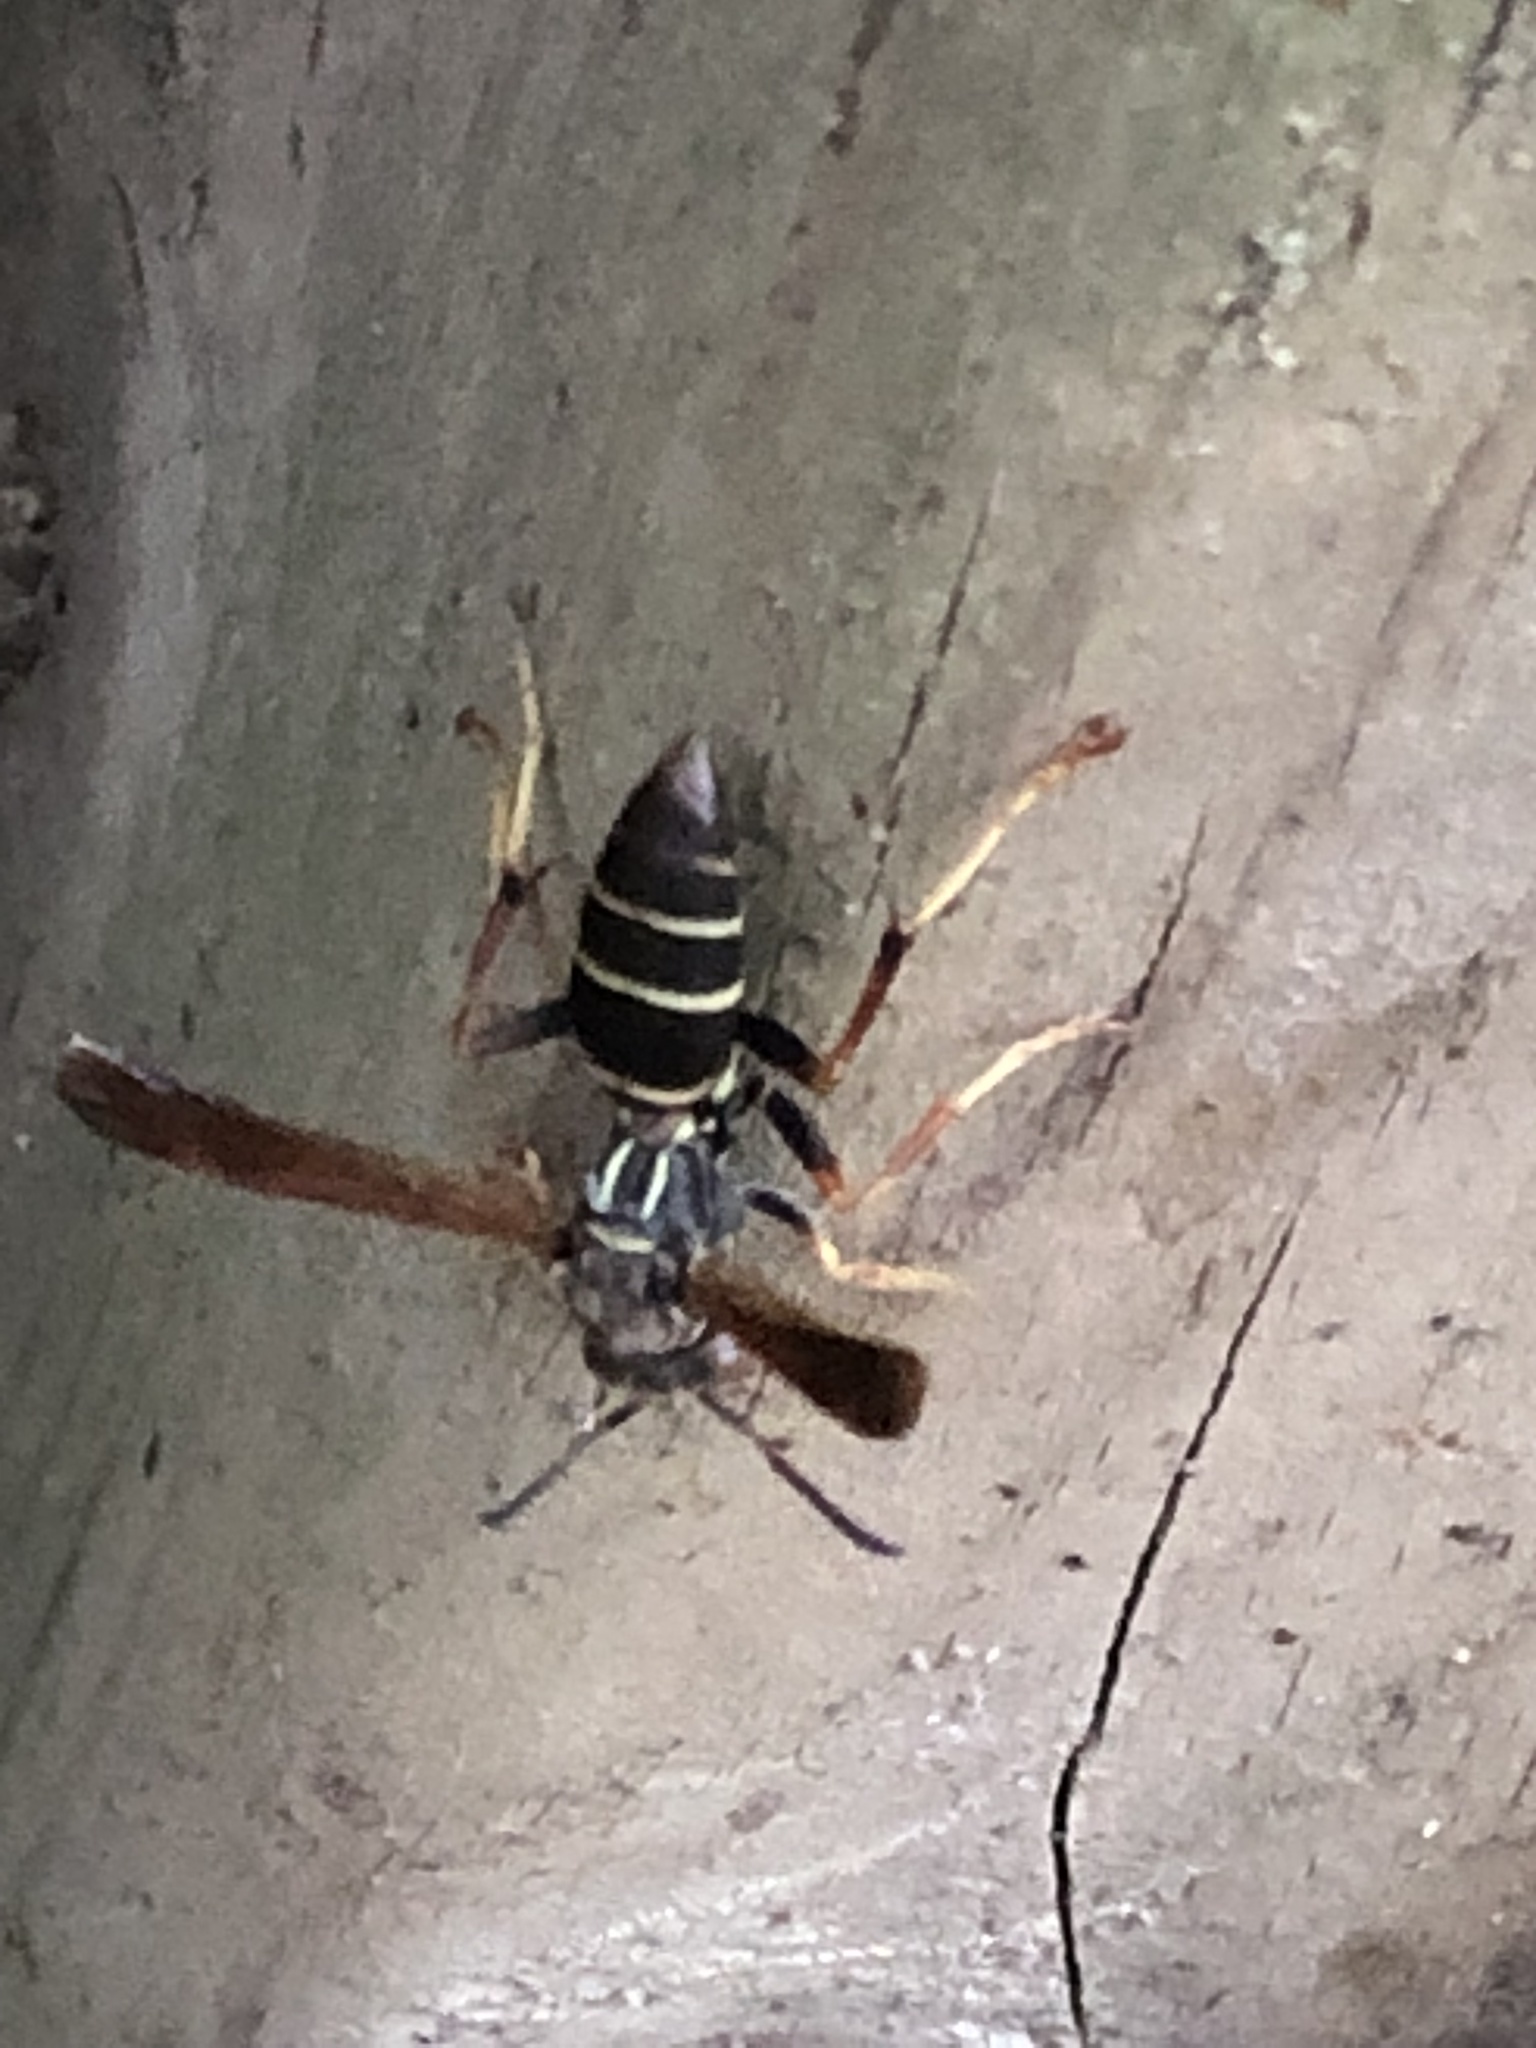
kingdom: Animalia
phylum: Arthropoda
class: Insecta
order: Hymenoptera
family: Eumenidae
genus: Polistes
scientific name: Polistes fuscatus
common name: Dark paper wasp
